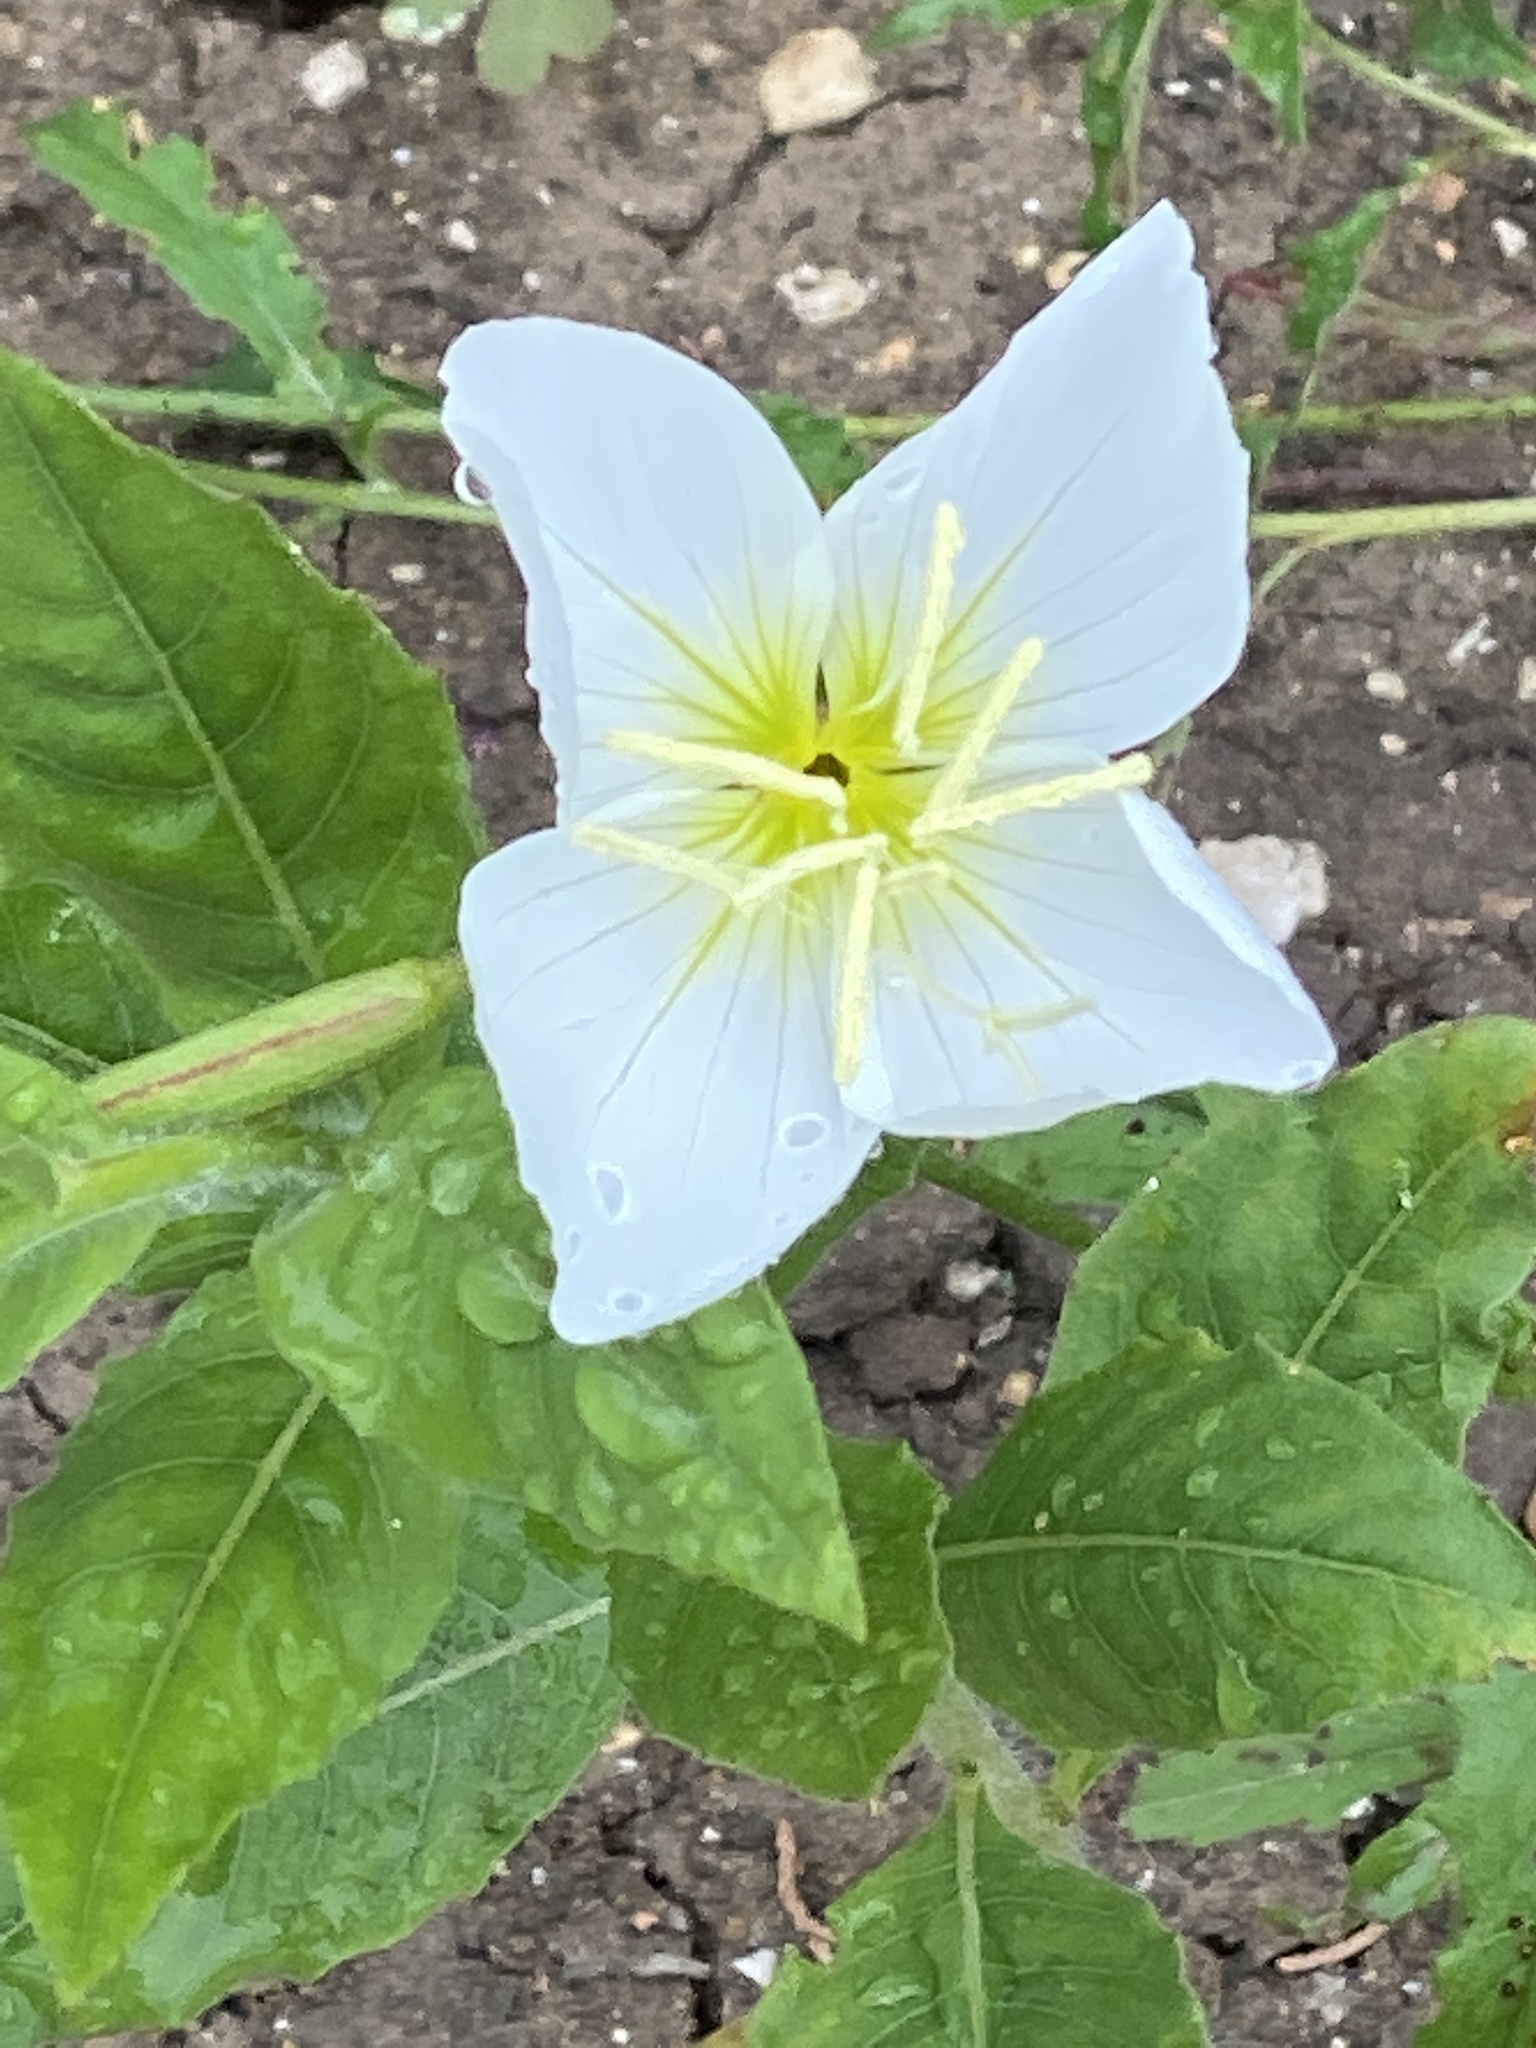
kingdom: Plantae
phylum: Tracheophyta
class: Magnoliopsida
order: Myrtales
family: Onagraceae
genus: Oenothera
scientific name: Oenothera tetraptera
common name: Four-wing evening-primrose
